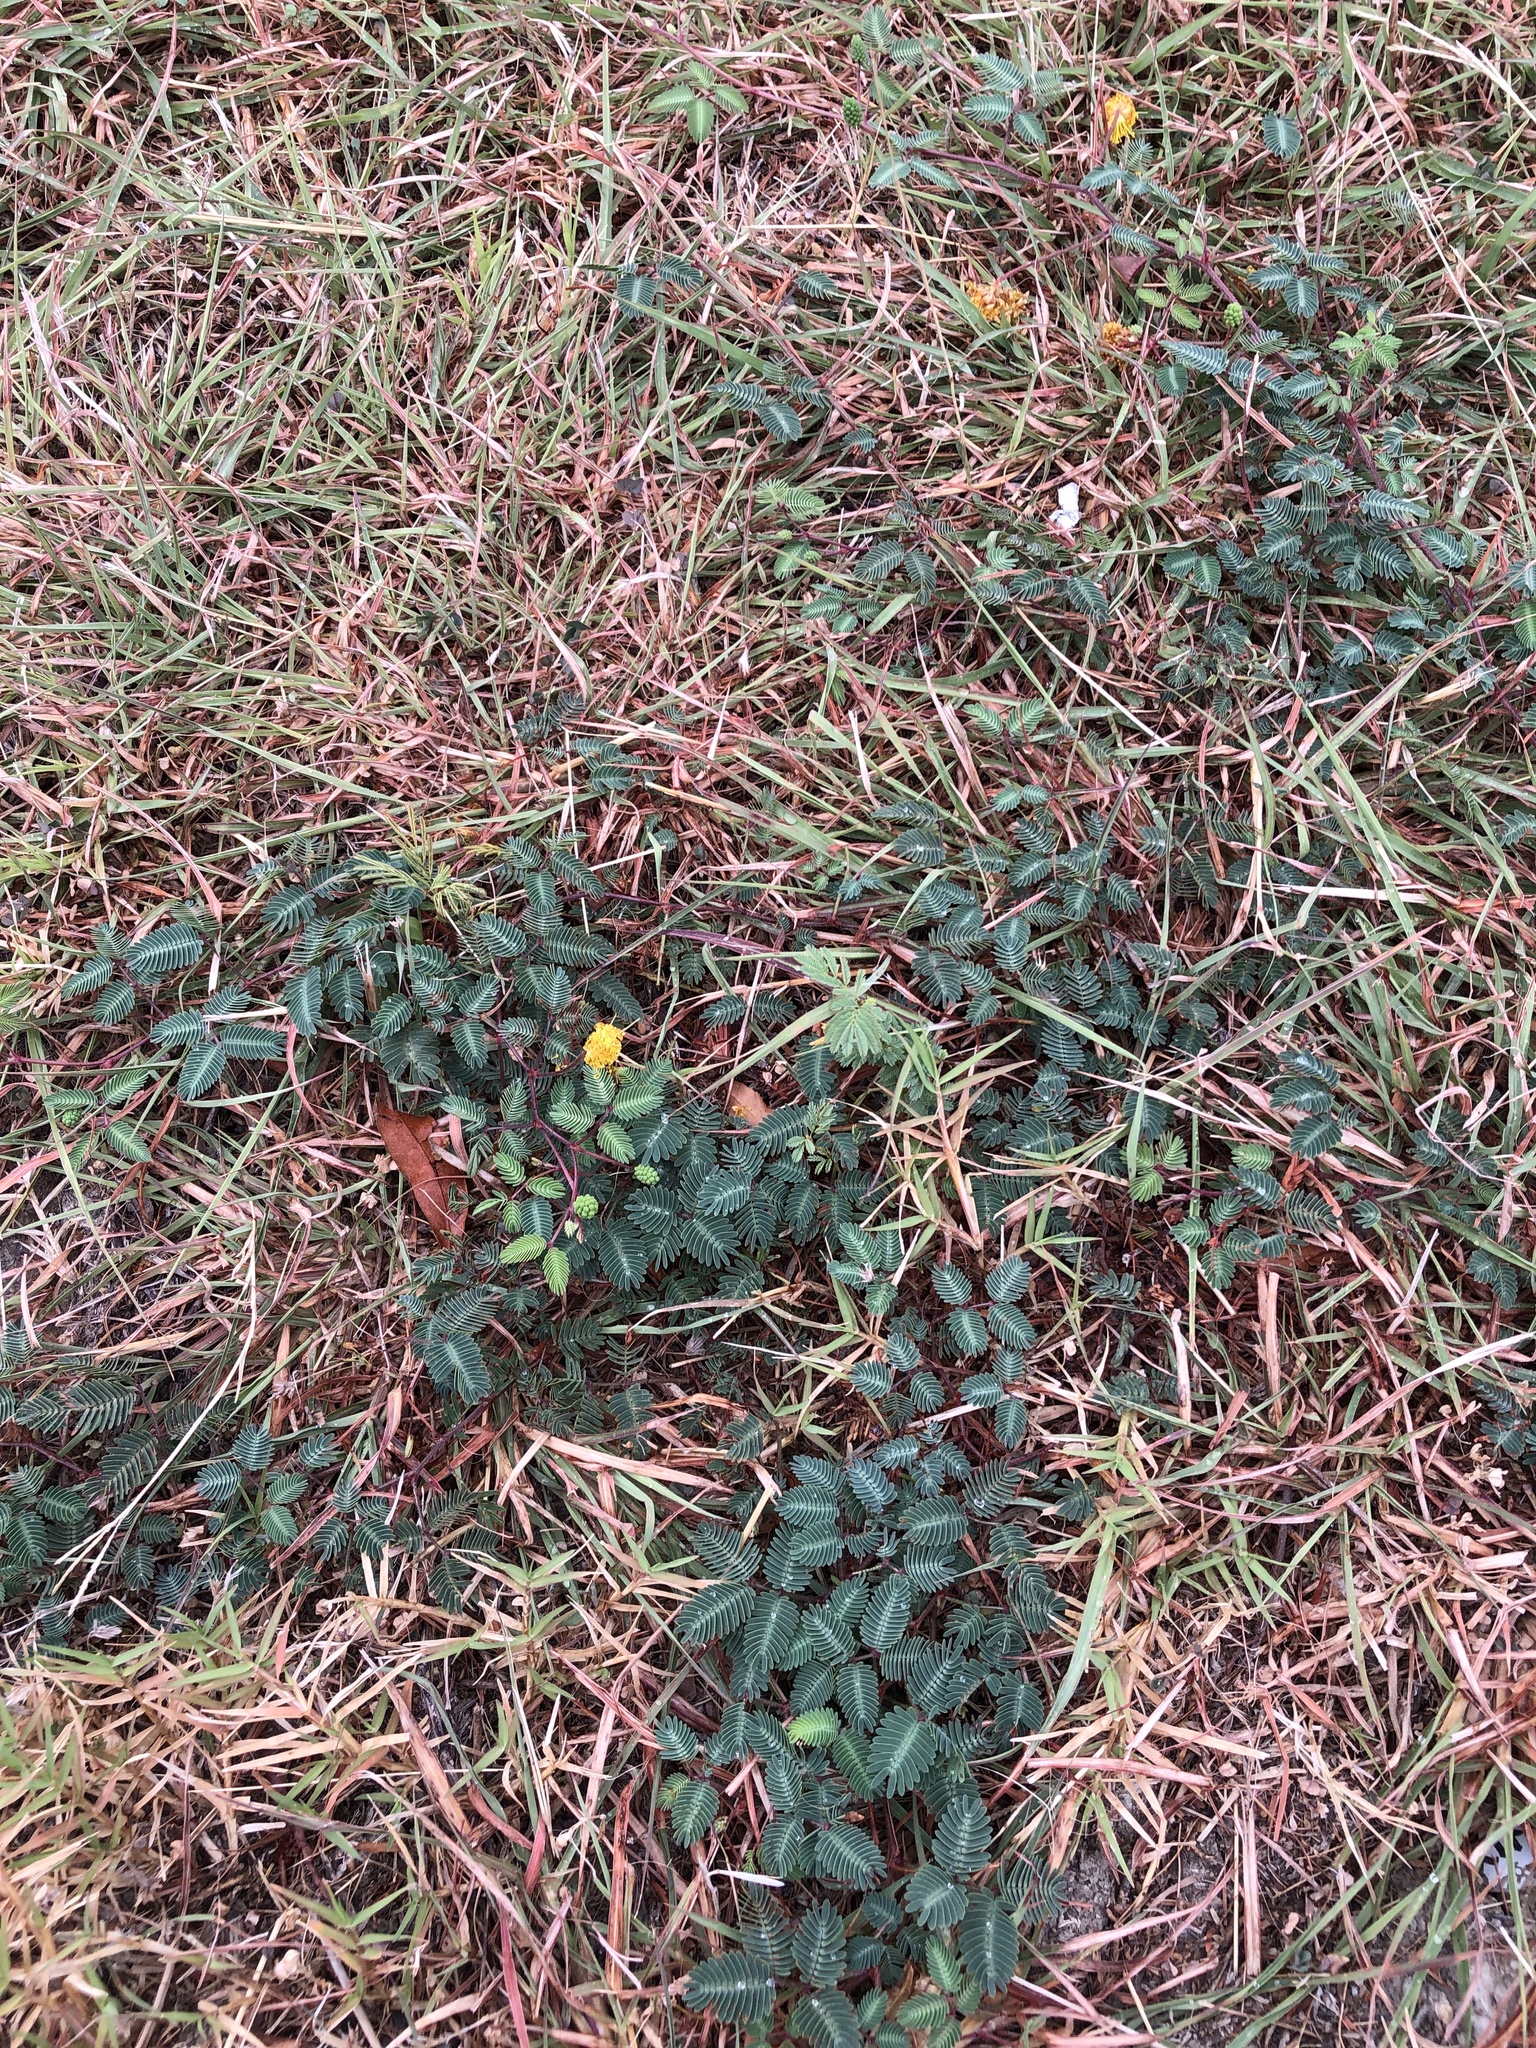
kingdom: Plantae
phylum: Tracheophyta
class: Magnoliopsida
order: Fabales
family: Fabaceae
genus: Neptunia
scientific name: Neptunia lutea
